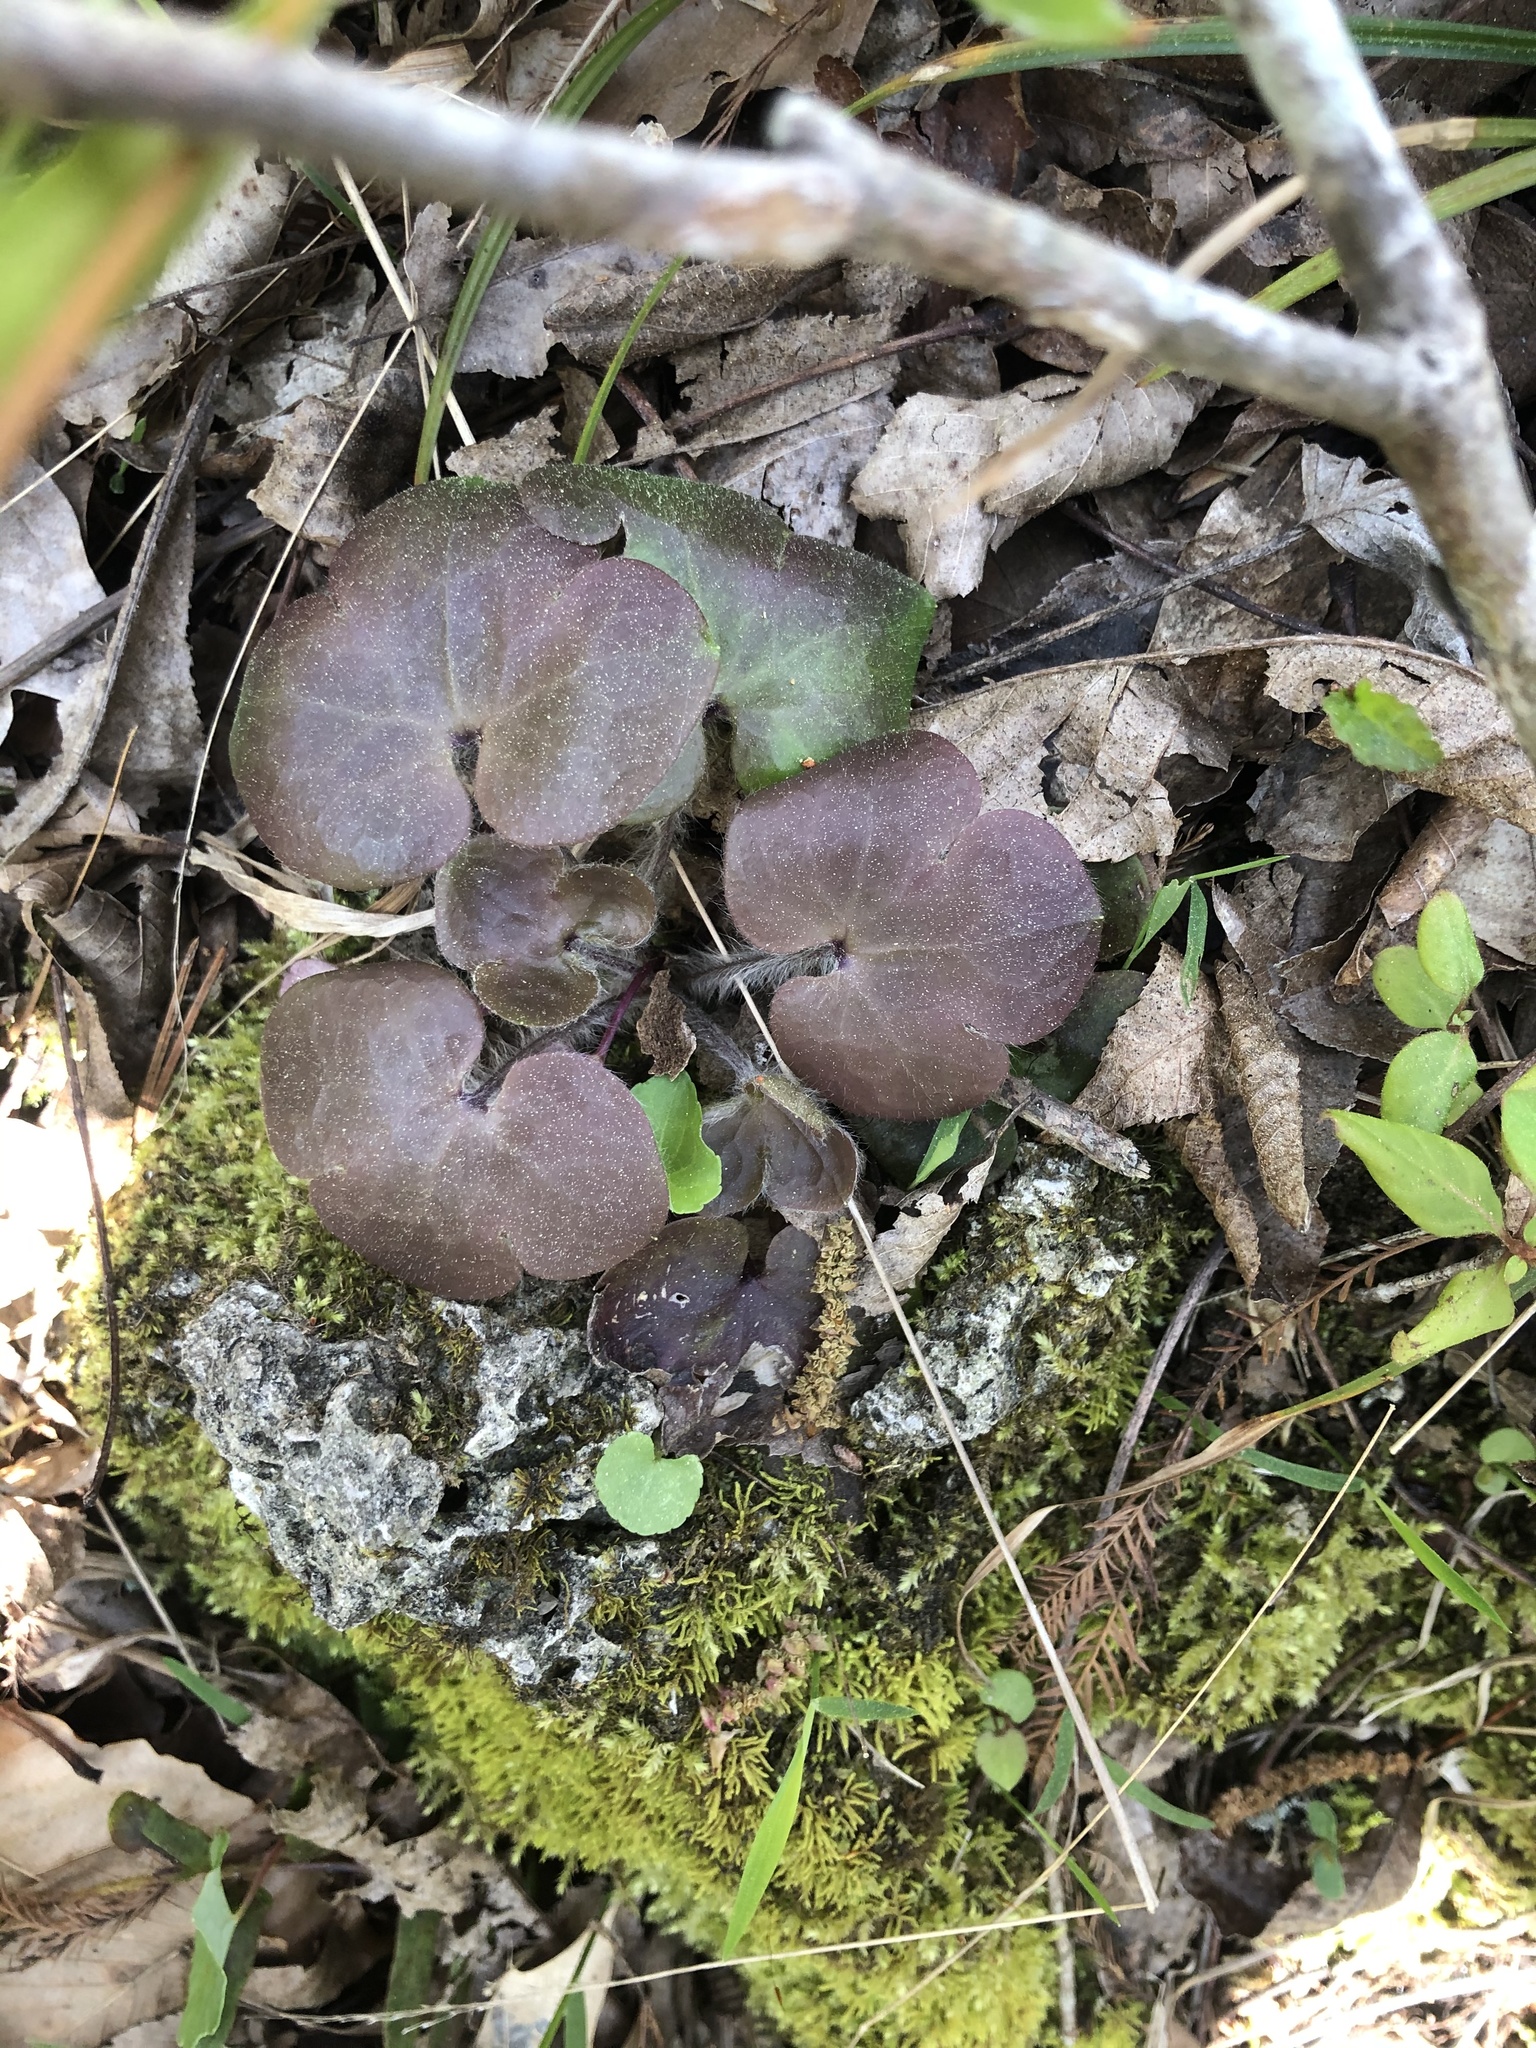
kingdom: Plantae
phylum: Tracheophyta
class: Magnoliopsida
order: Ranunculales
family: Ranunculaceae
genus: Hepatica
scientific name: Hepatica americana
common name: American hepatica
